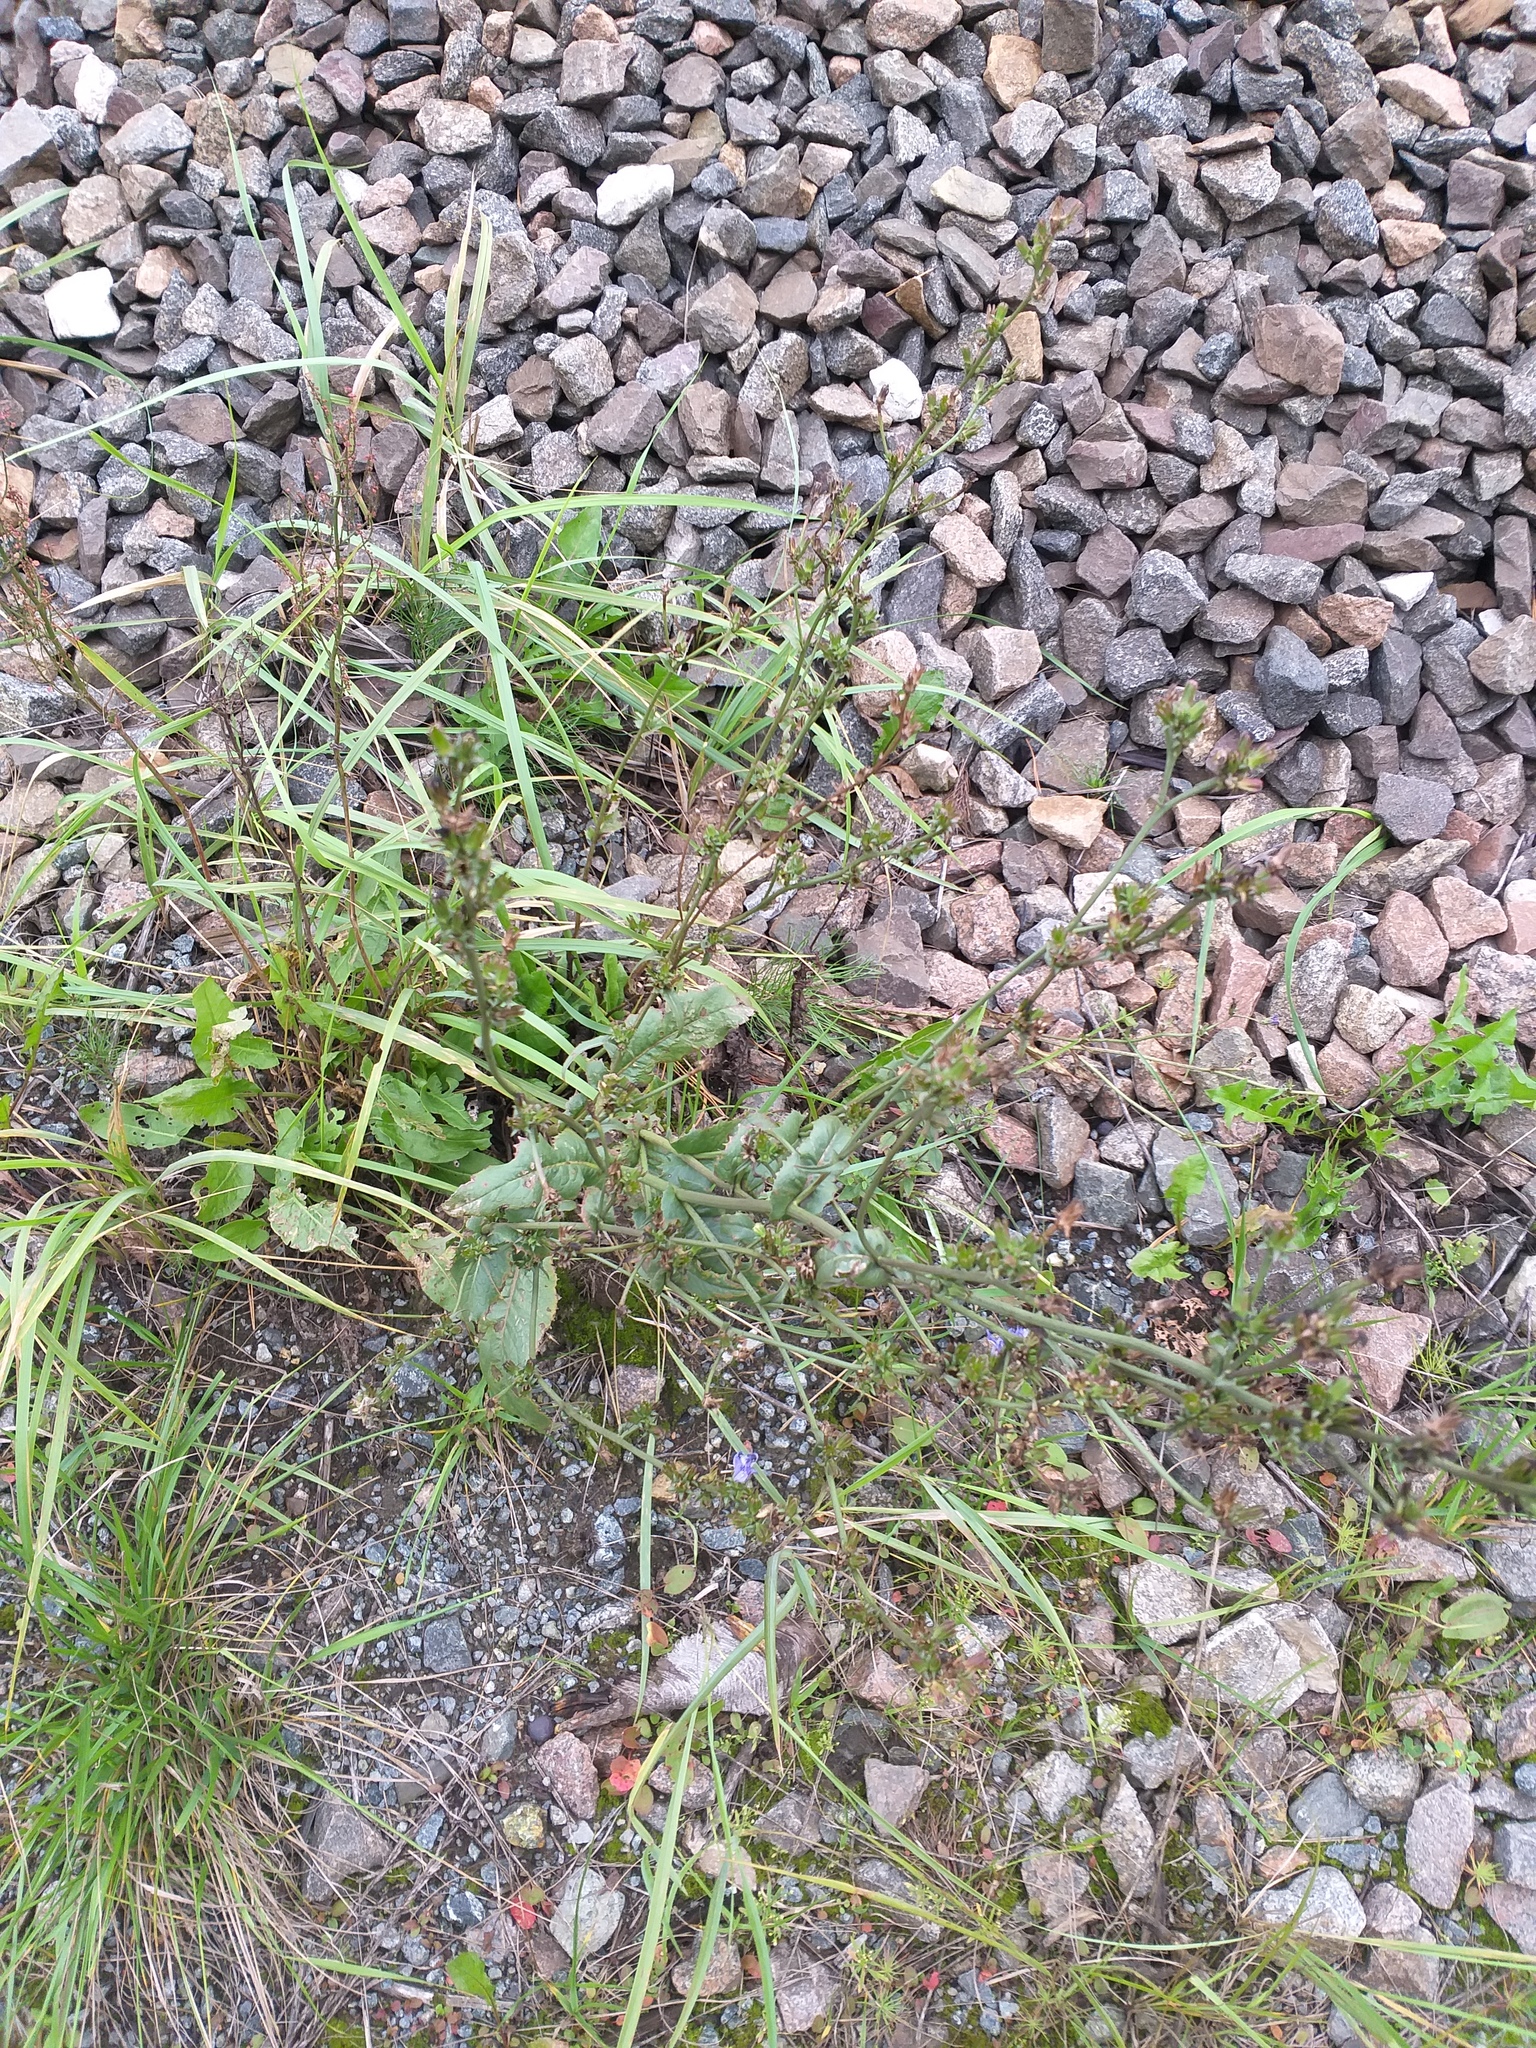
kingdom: Plantae
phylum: Tracheophyta
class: Magnoliopsida
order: Asterales
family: Asteraceae
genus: Cichorium
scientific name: Cichorium intybus
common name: Chicory
